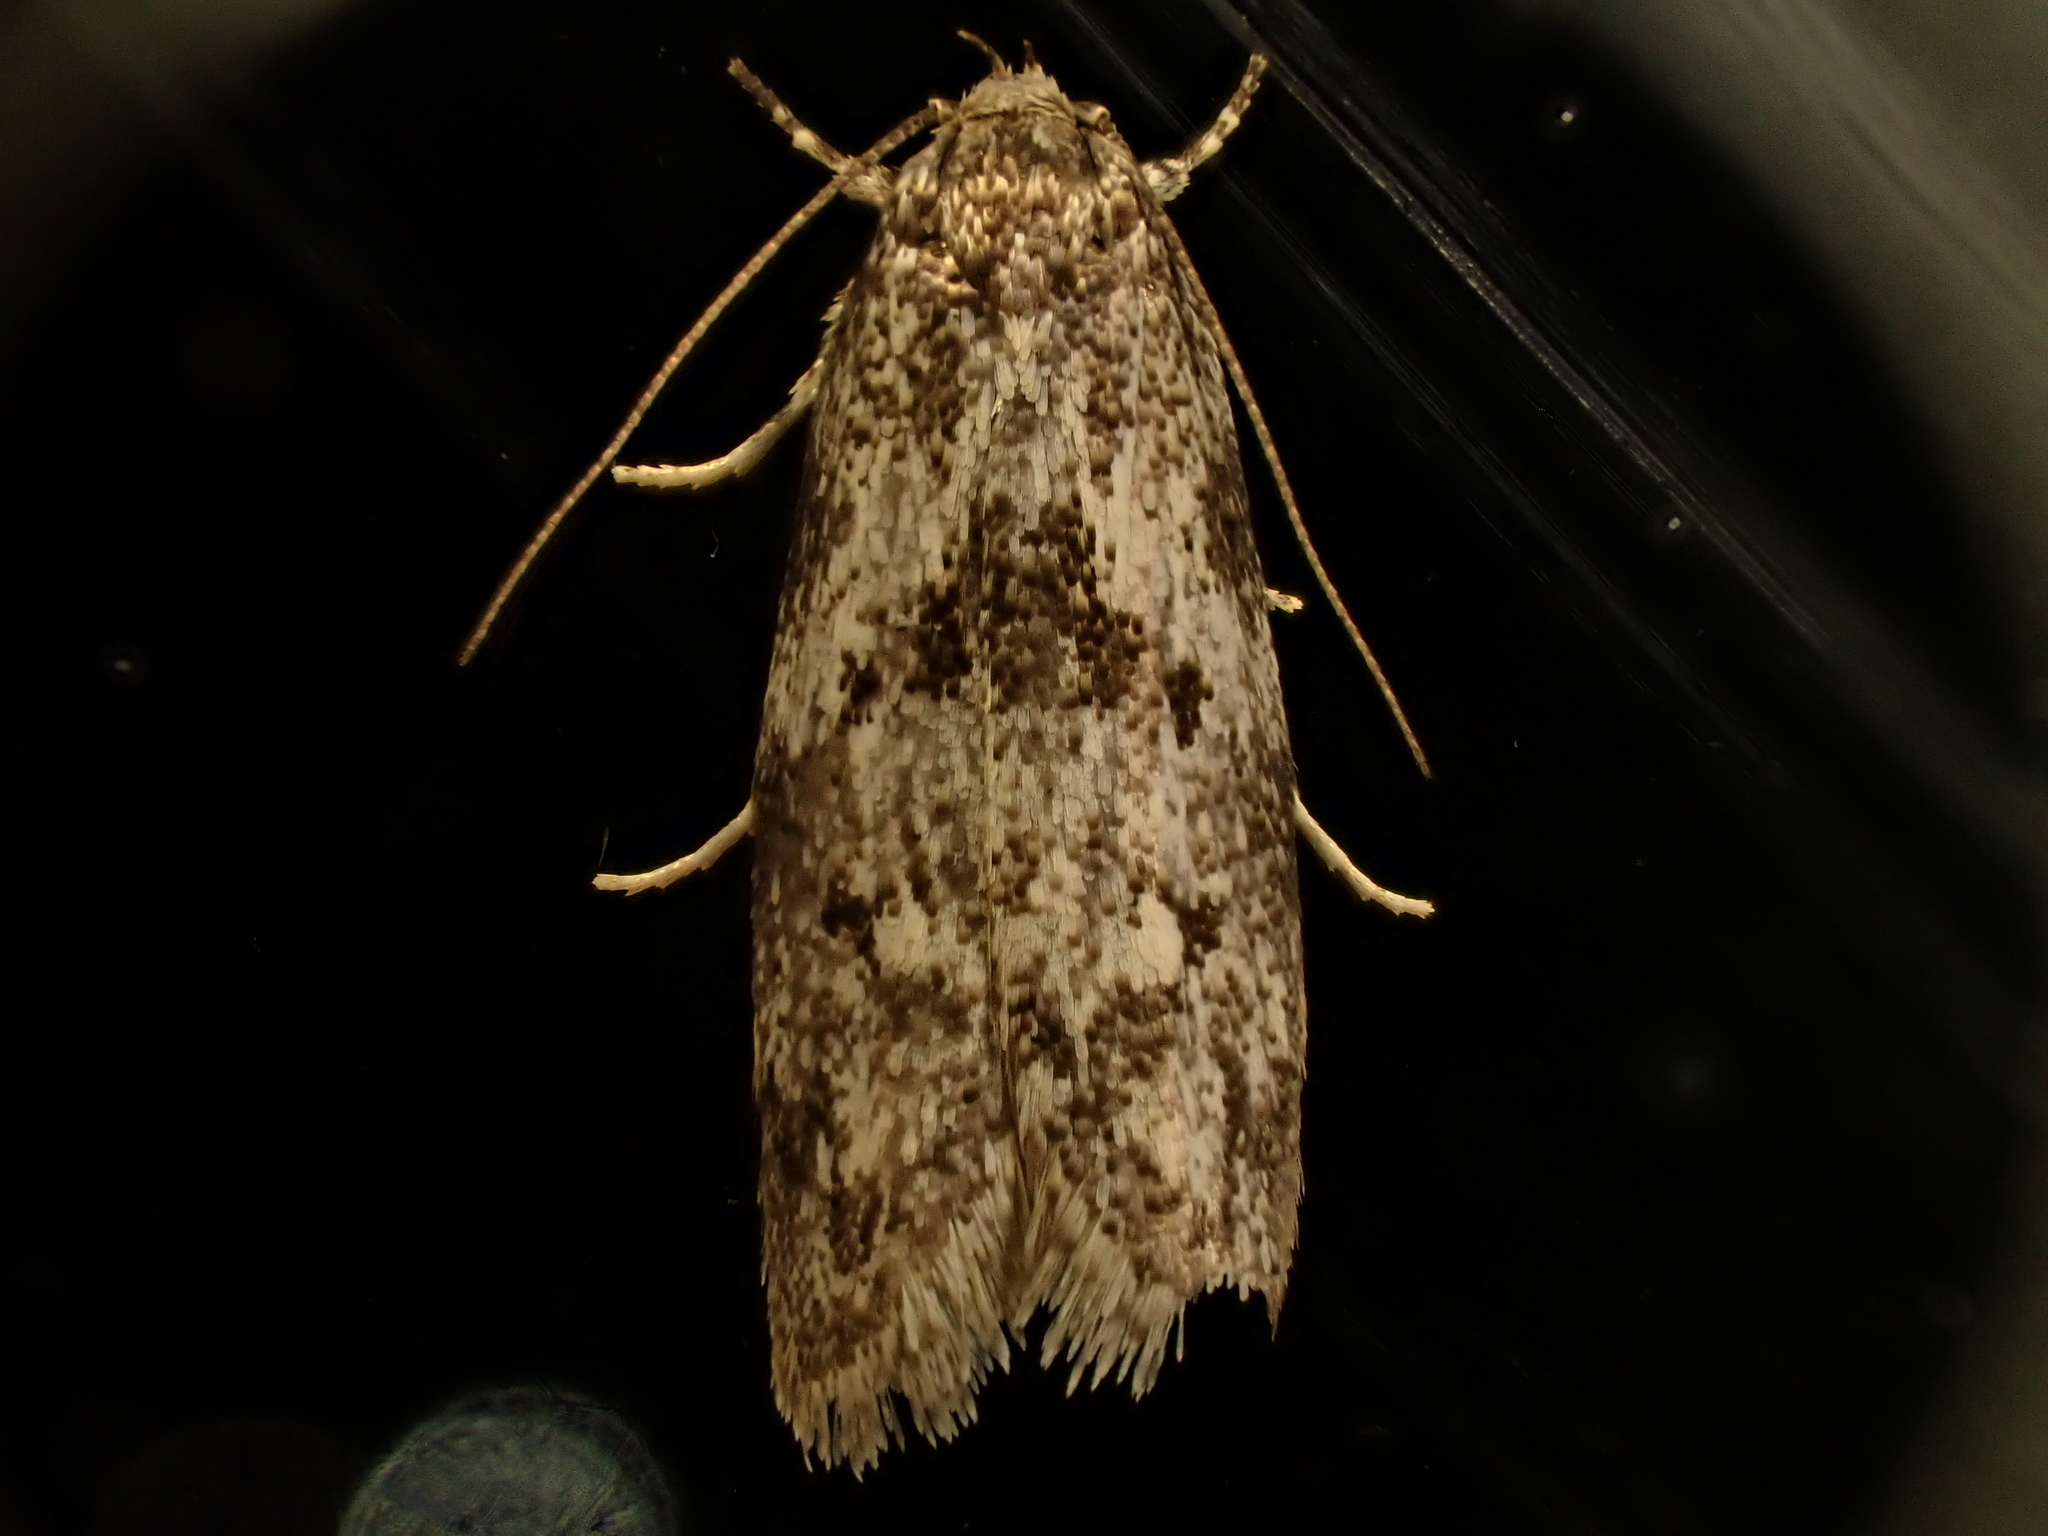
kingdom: Animalia
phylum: Arthropoda
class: Insecta
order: Lepidoptera
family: Oecophoridae
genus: Tingena
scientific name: Tingena clarkei
